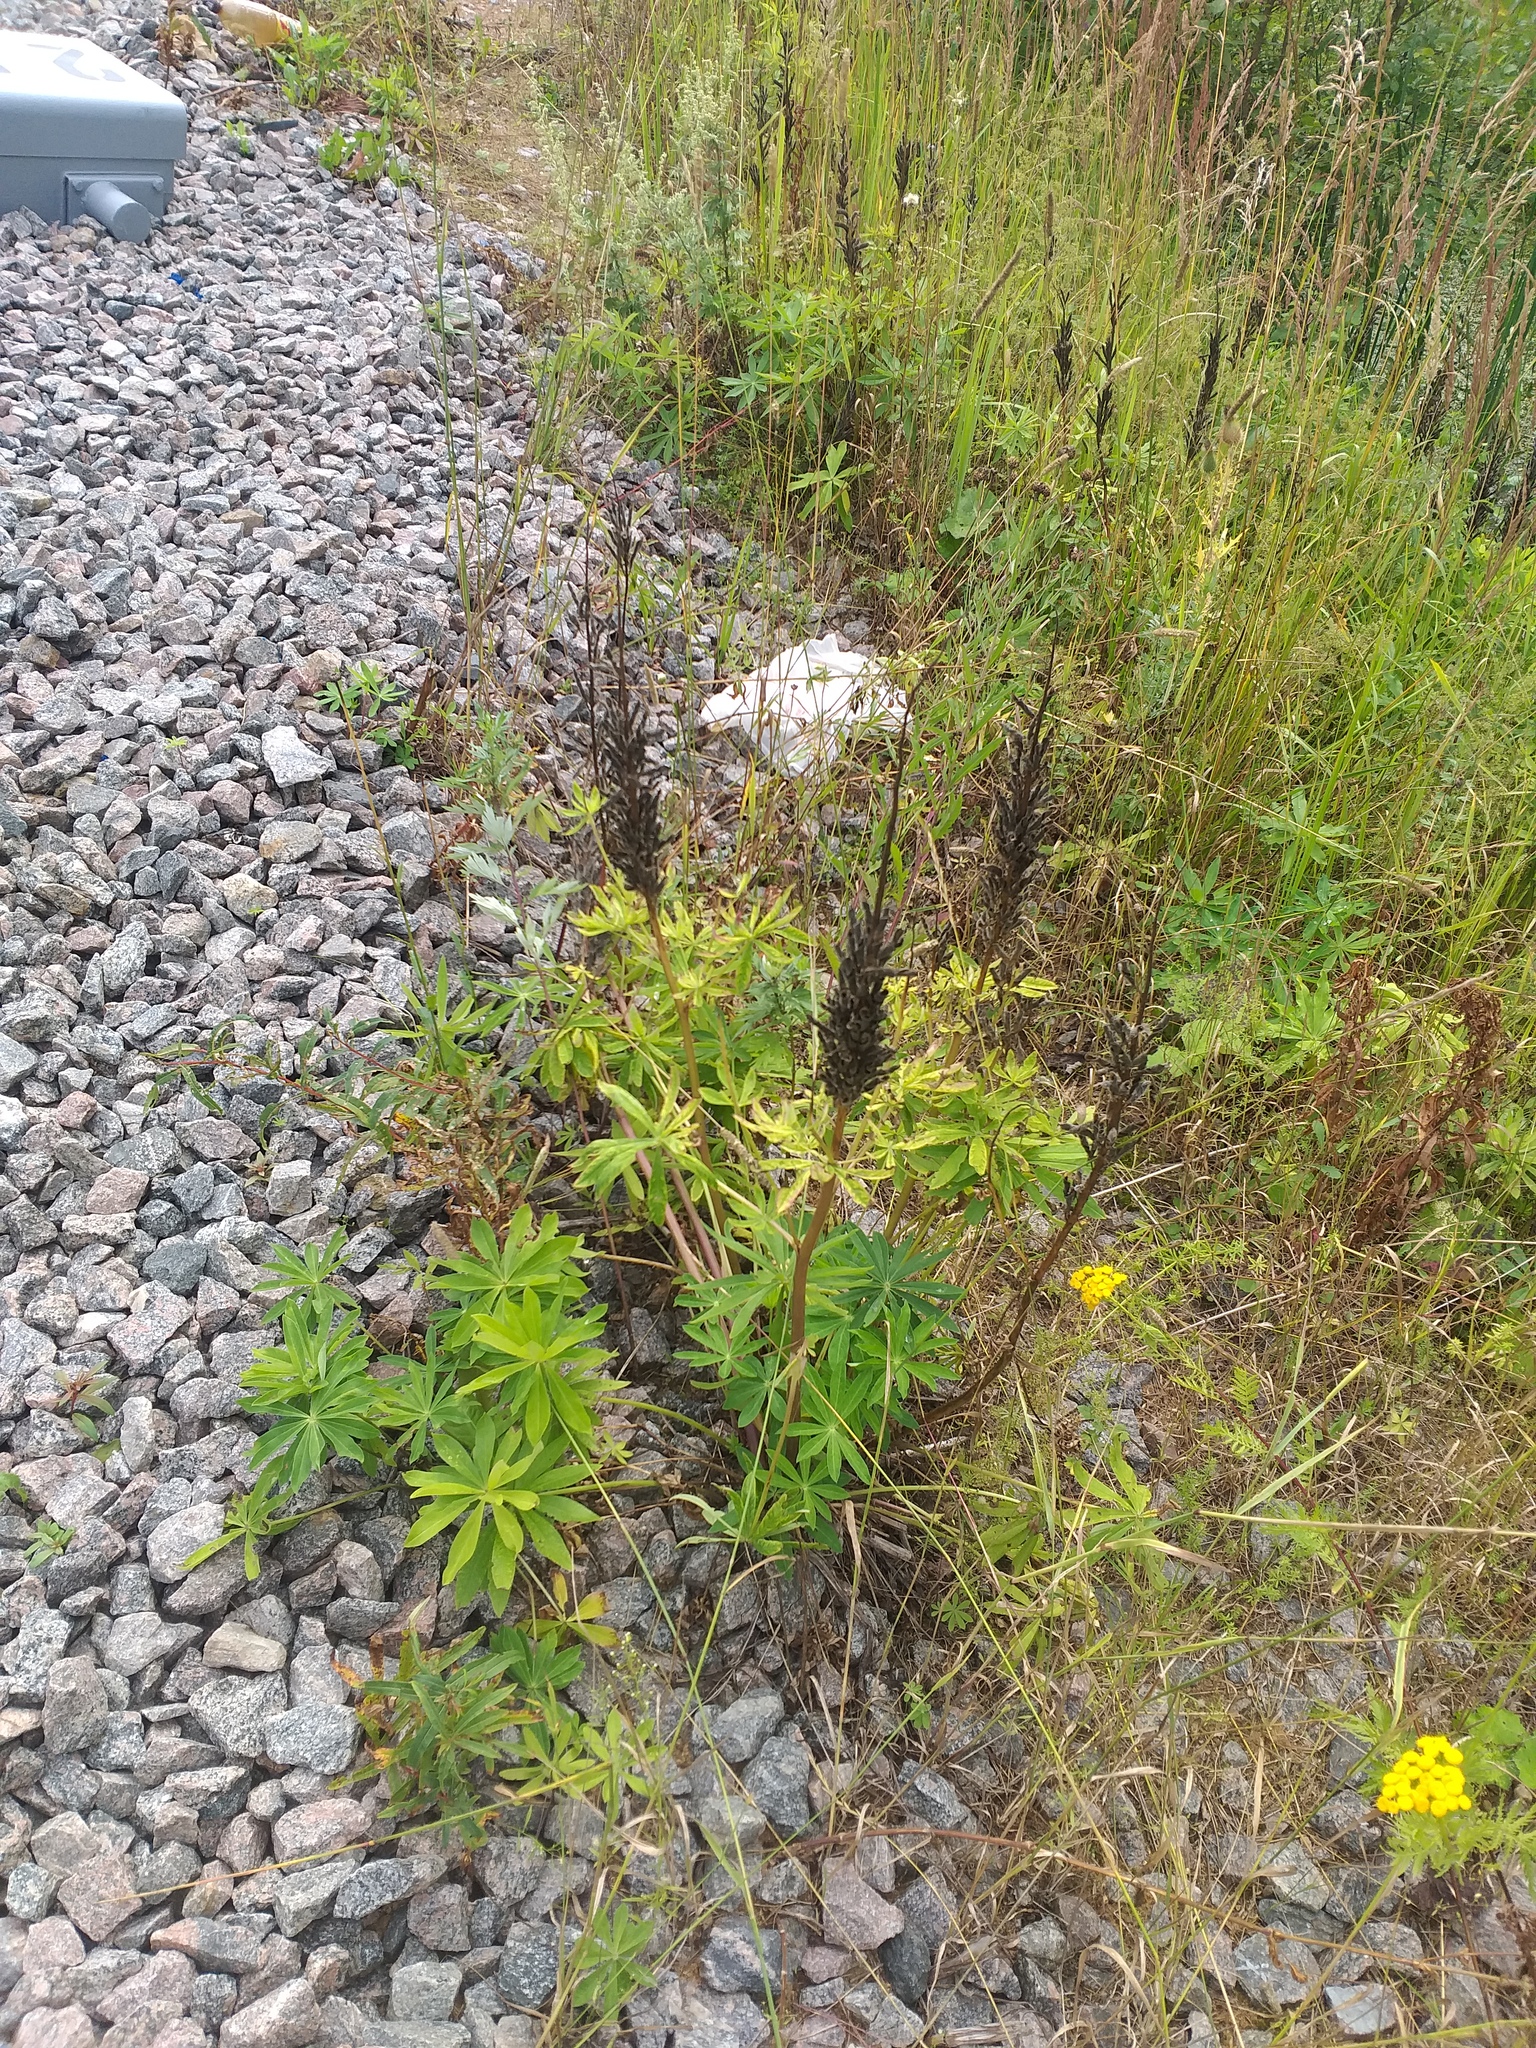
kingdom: Plantae
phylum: Tracheophyta
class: Magnoliopsida
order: Fabales
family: Fabaceae
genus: Lupinus
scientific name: Lupinus polyphyllus
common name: Garden lupin
